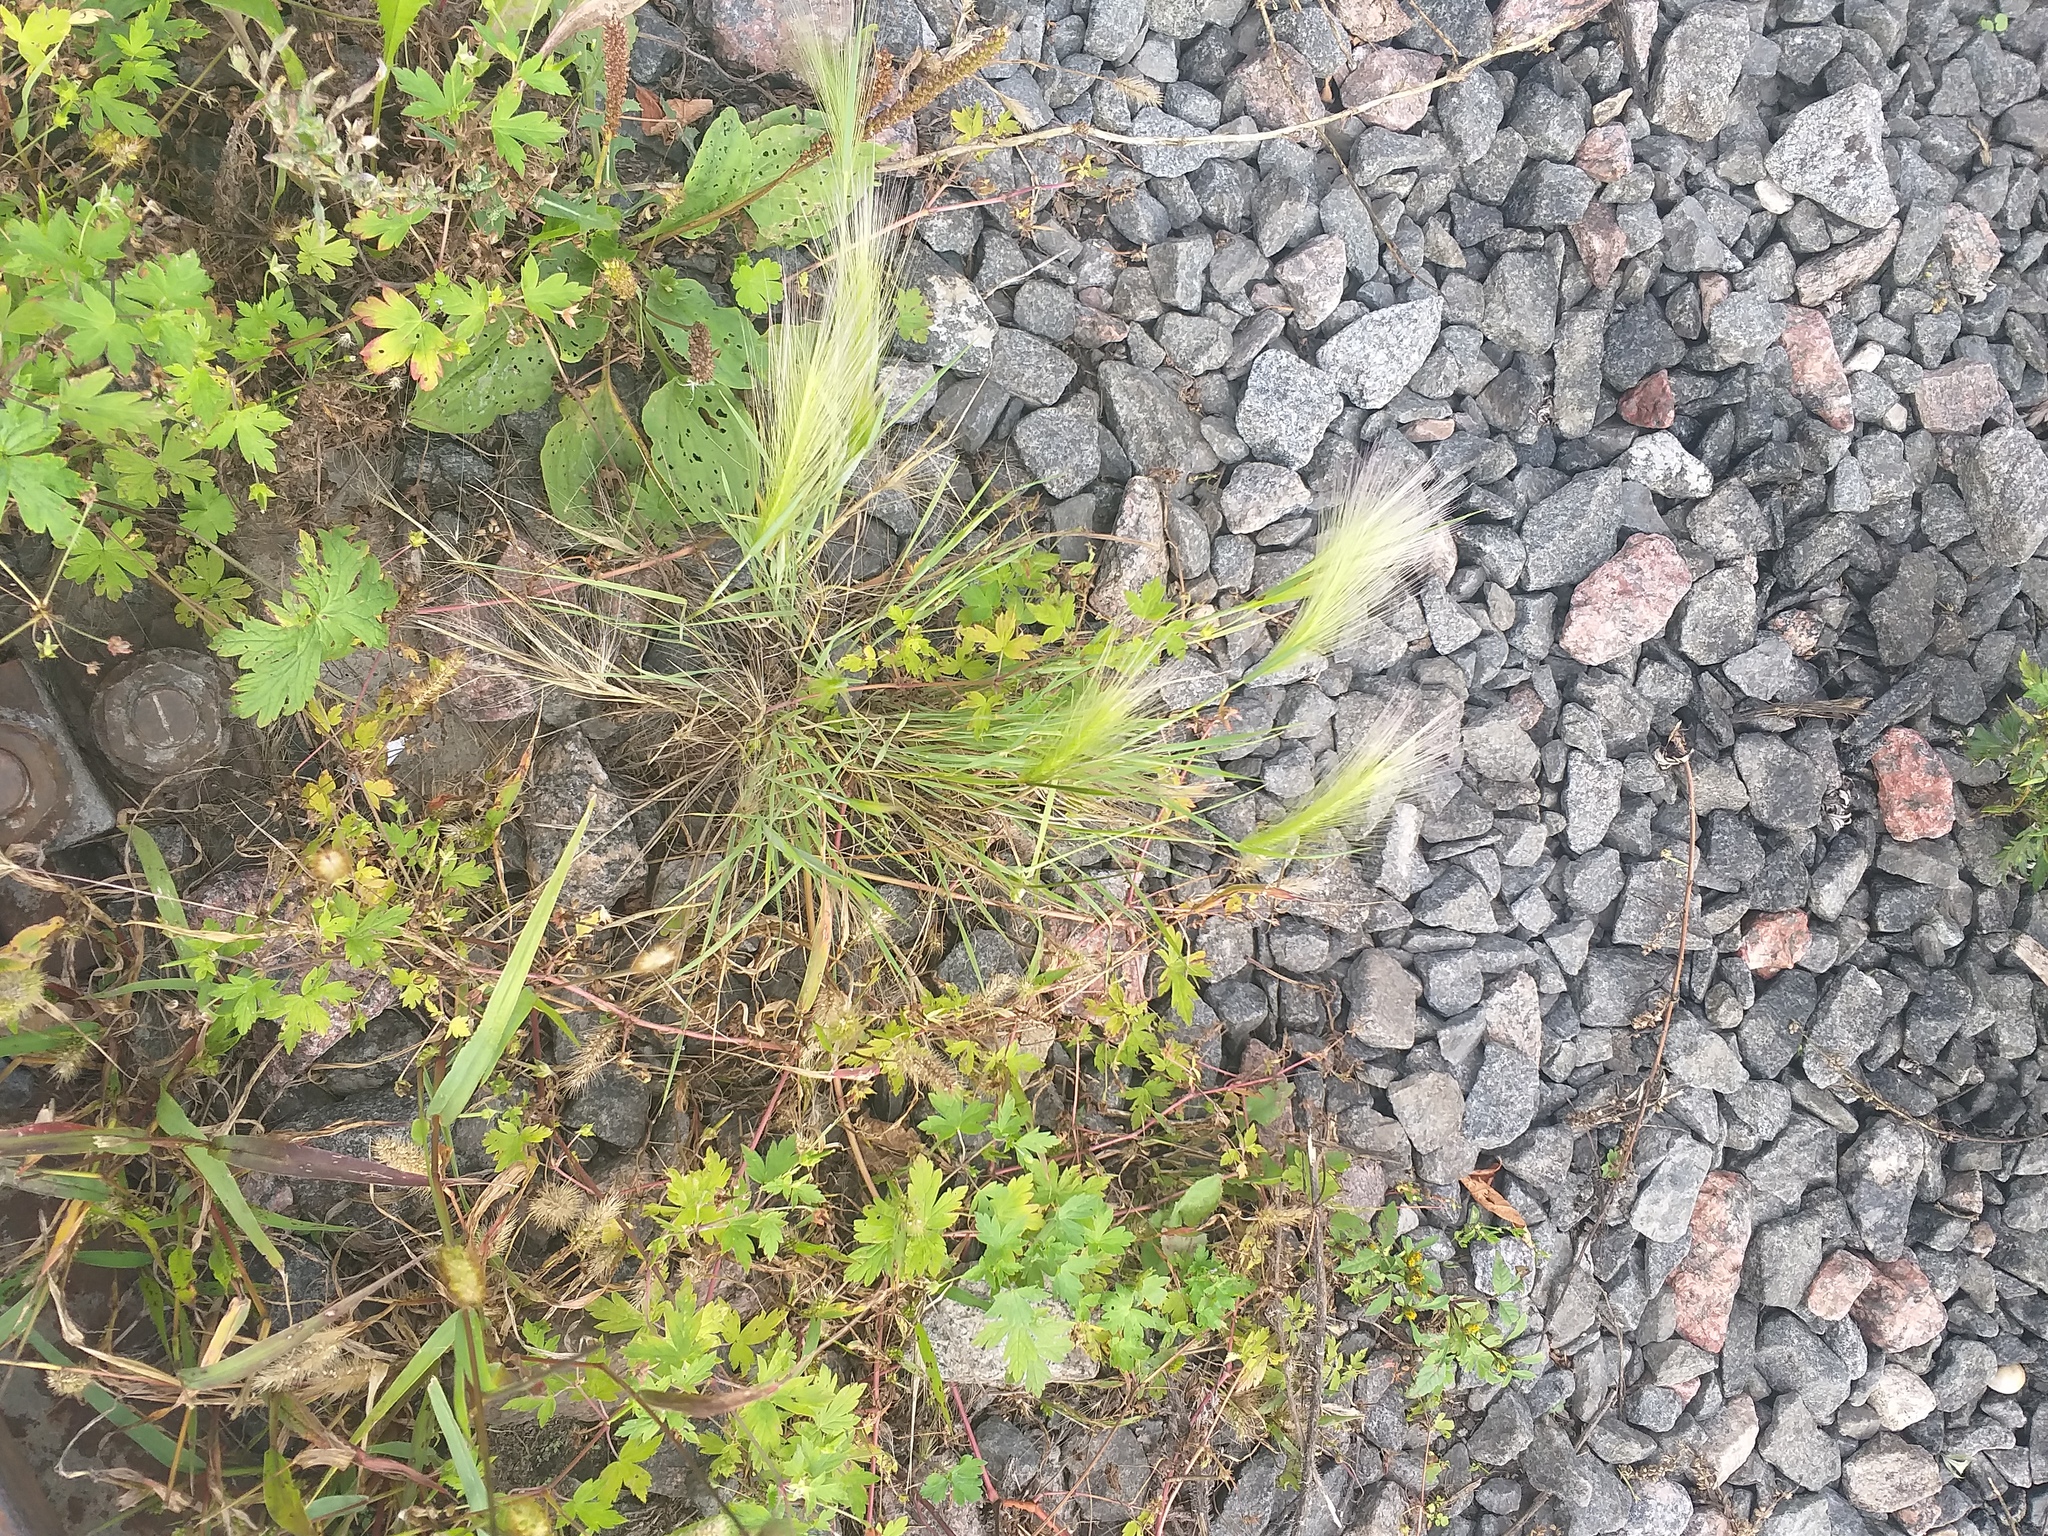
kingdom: Plantae
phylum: Tracheophyta
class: Liliopsida
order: Poales
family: Poaceae
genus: Hordeum
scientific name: Hordeum jubatum
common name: Foxtail barley
